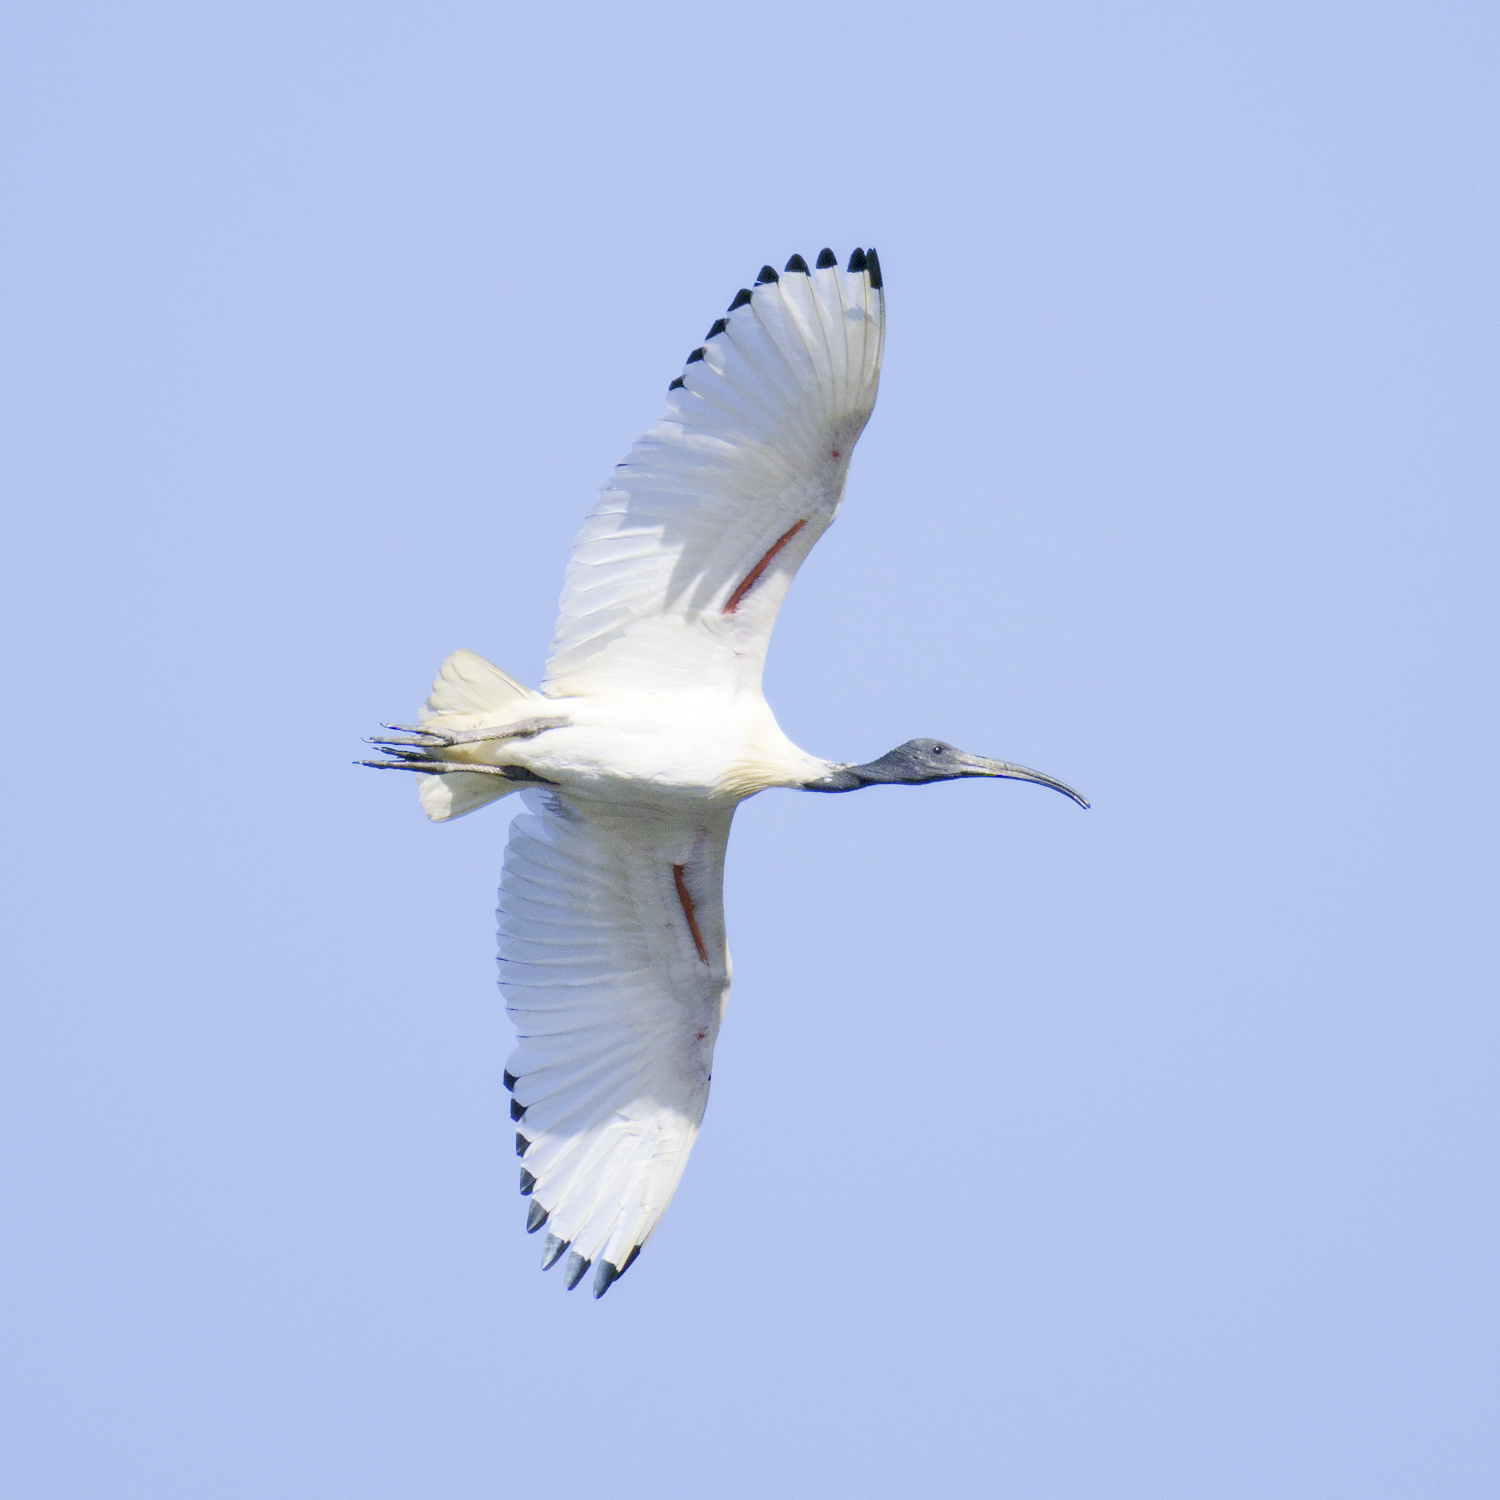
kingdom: Animalia
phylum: Chordata
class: Aves
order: Pelecaniformes
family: Threskiornithidae
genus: Threskiornis
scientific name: Threskiornis molucca
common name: Australian white ibis
